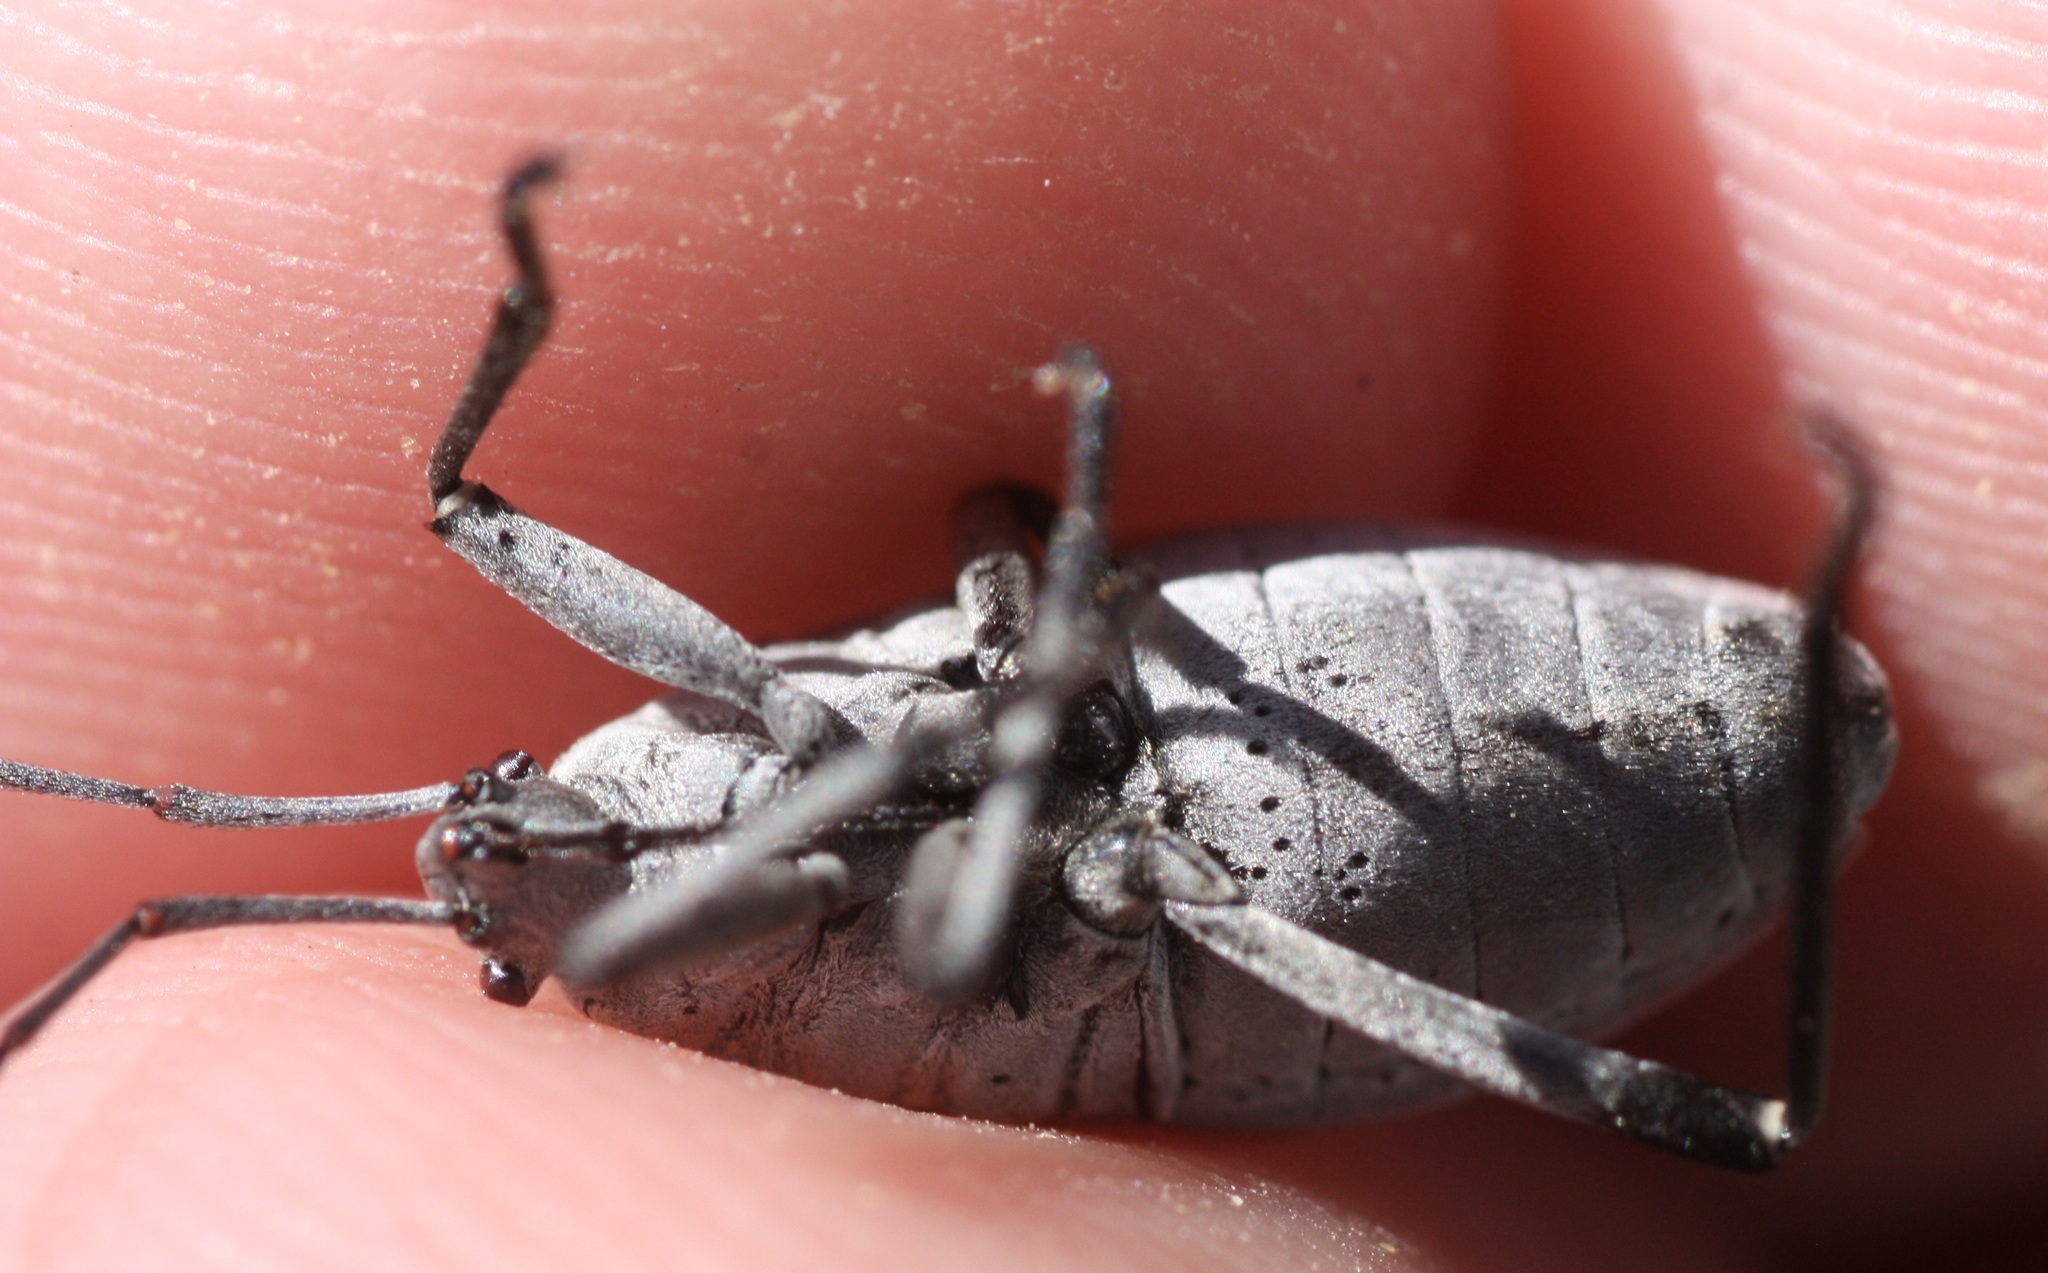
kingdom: Animalia
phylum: Arthropoda
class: Insecta
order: Hemiptera
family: Largidae
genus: Largus
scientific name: Largus semipunctatus
